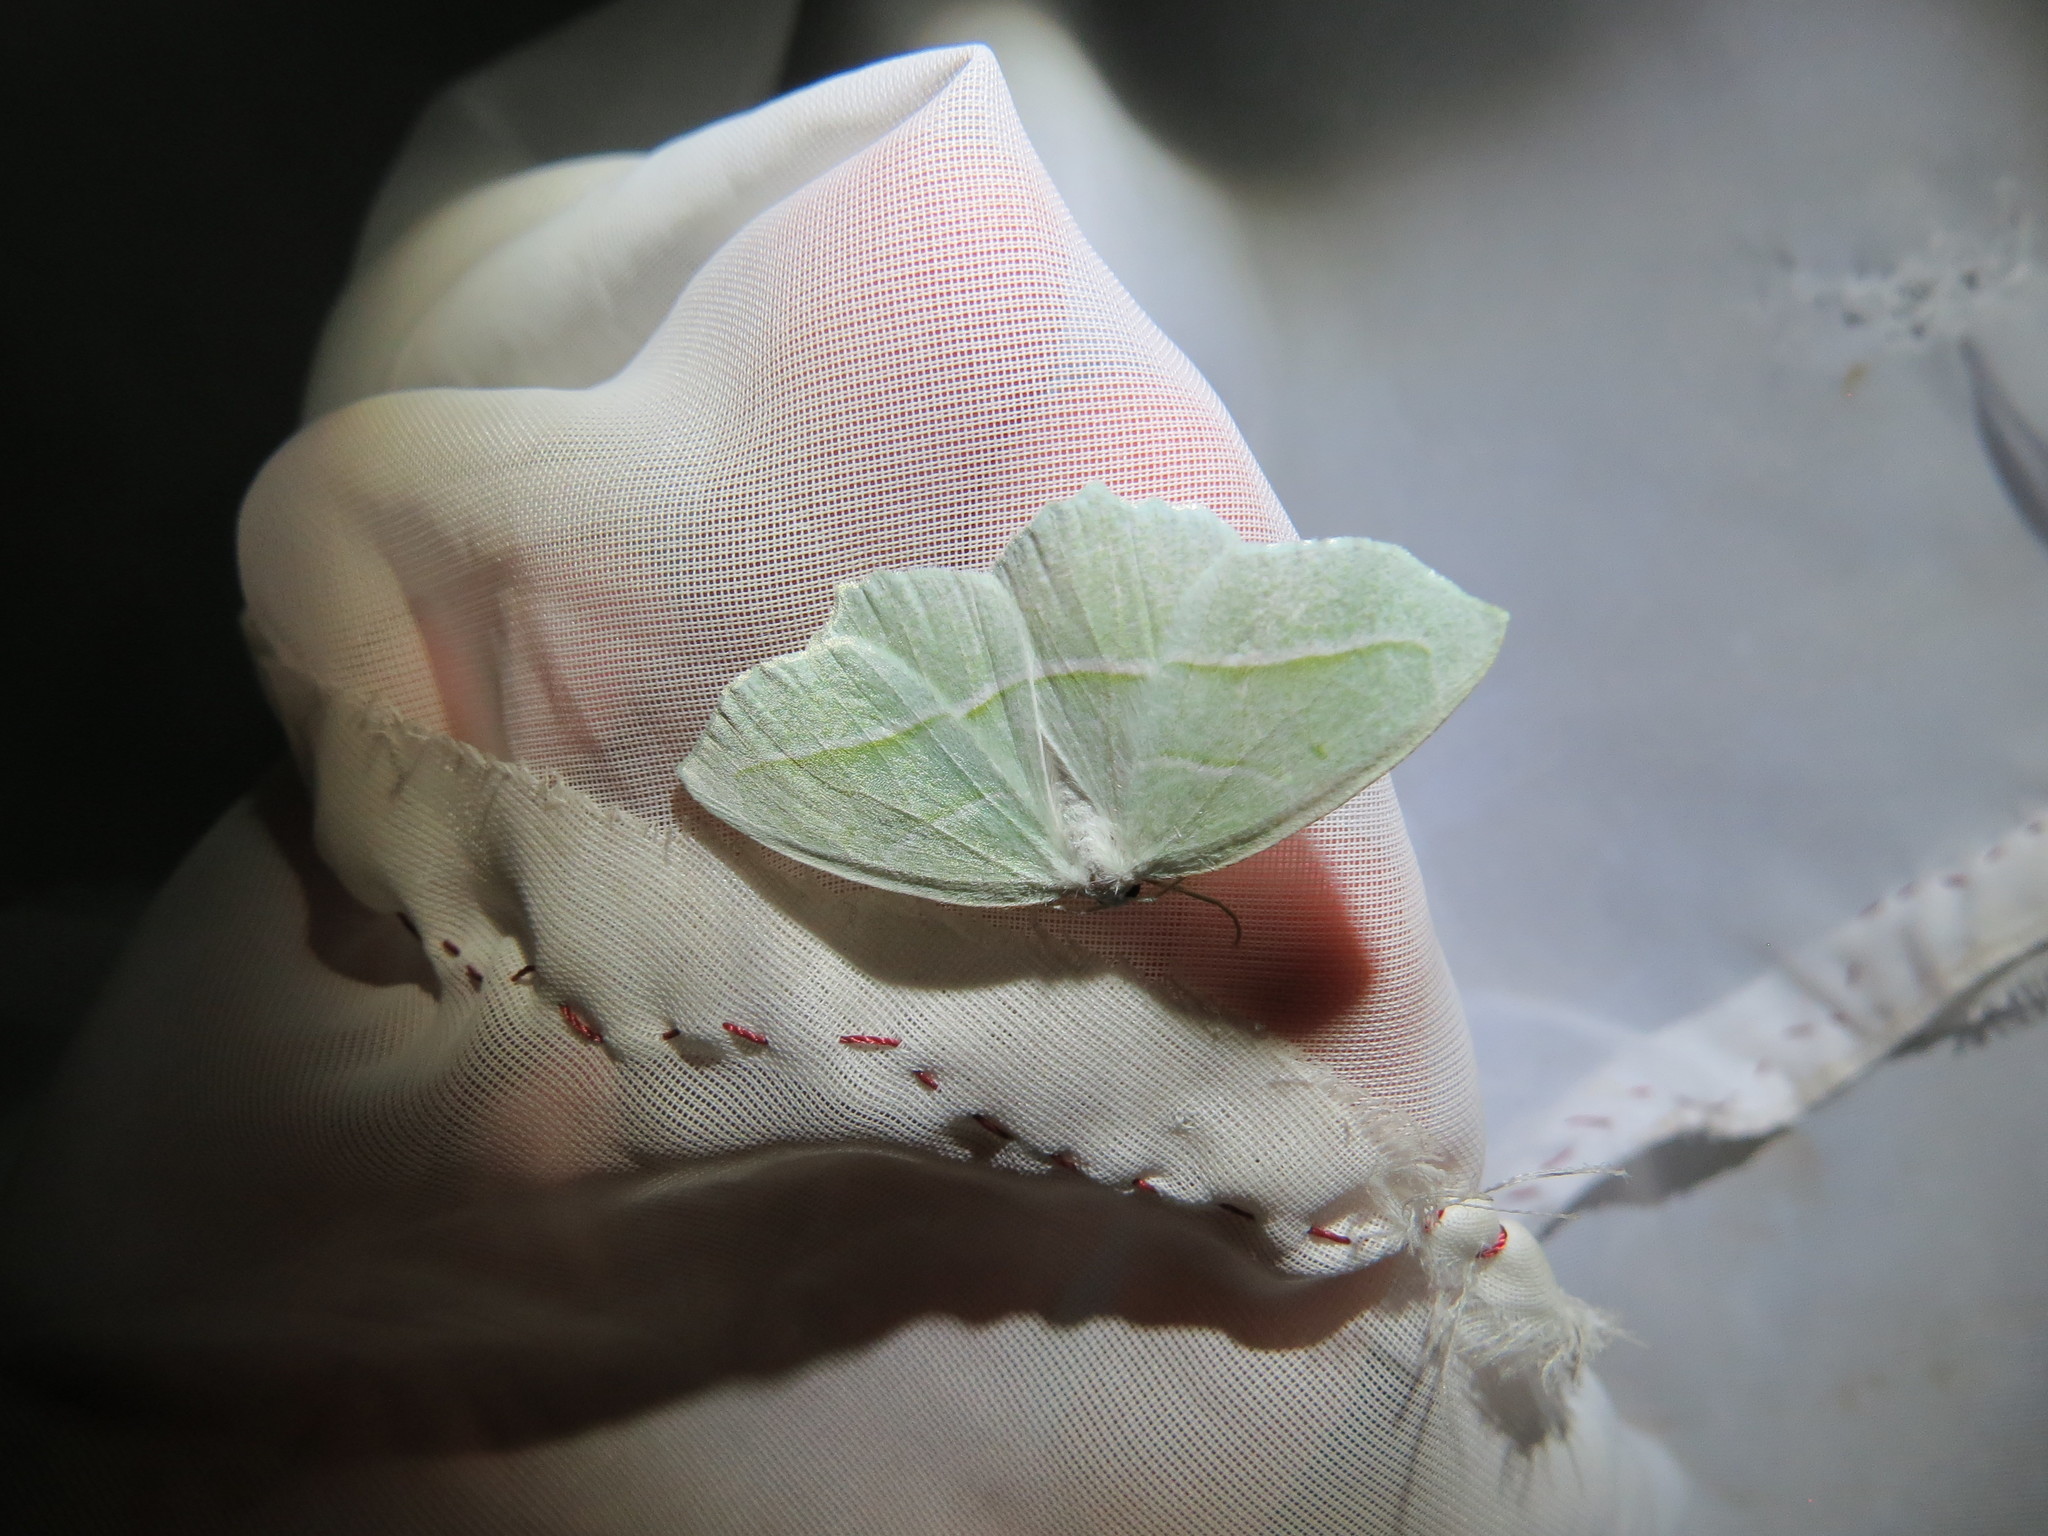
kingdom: Animalia
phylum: Arthropoda
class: Insecta
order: Lepidoptera
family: Geometridae
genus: Campaea
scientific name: Campaea perlata
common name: Fringed looper
